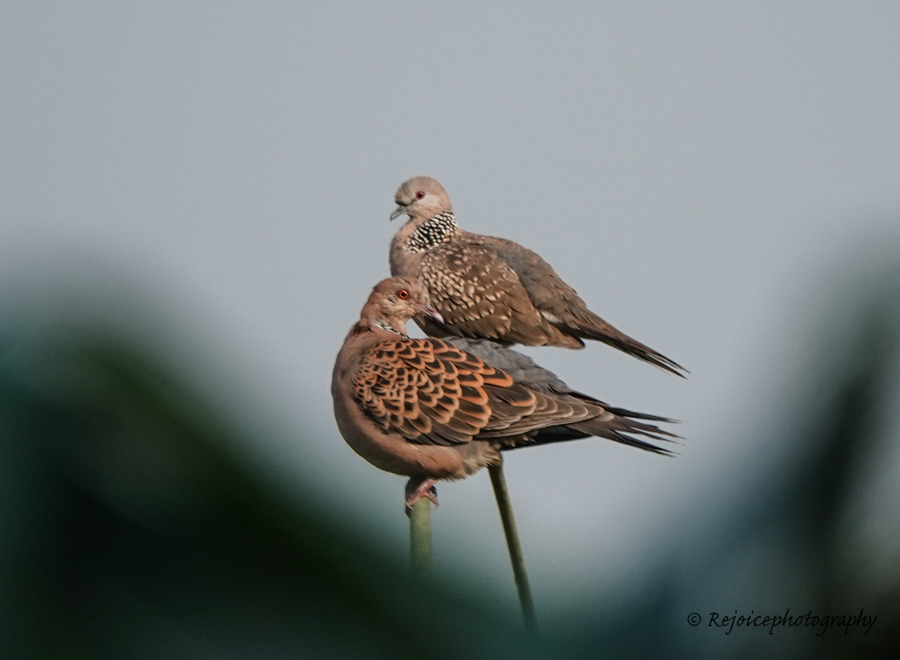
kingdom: Animalia
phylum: Chordata
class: Aves
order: Columbiformes
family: Columbidae
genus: Streptopelia
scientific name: Streptopelia orientalis
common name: Oriental turtle dove
